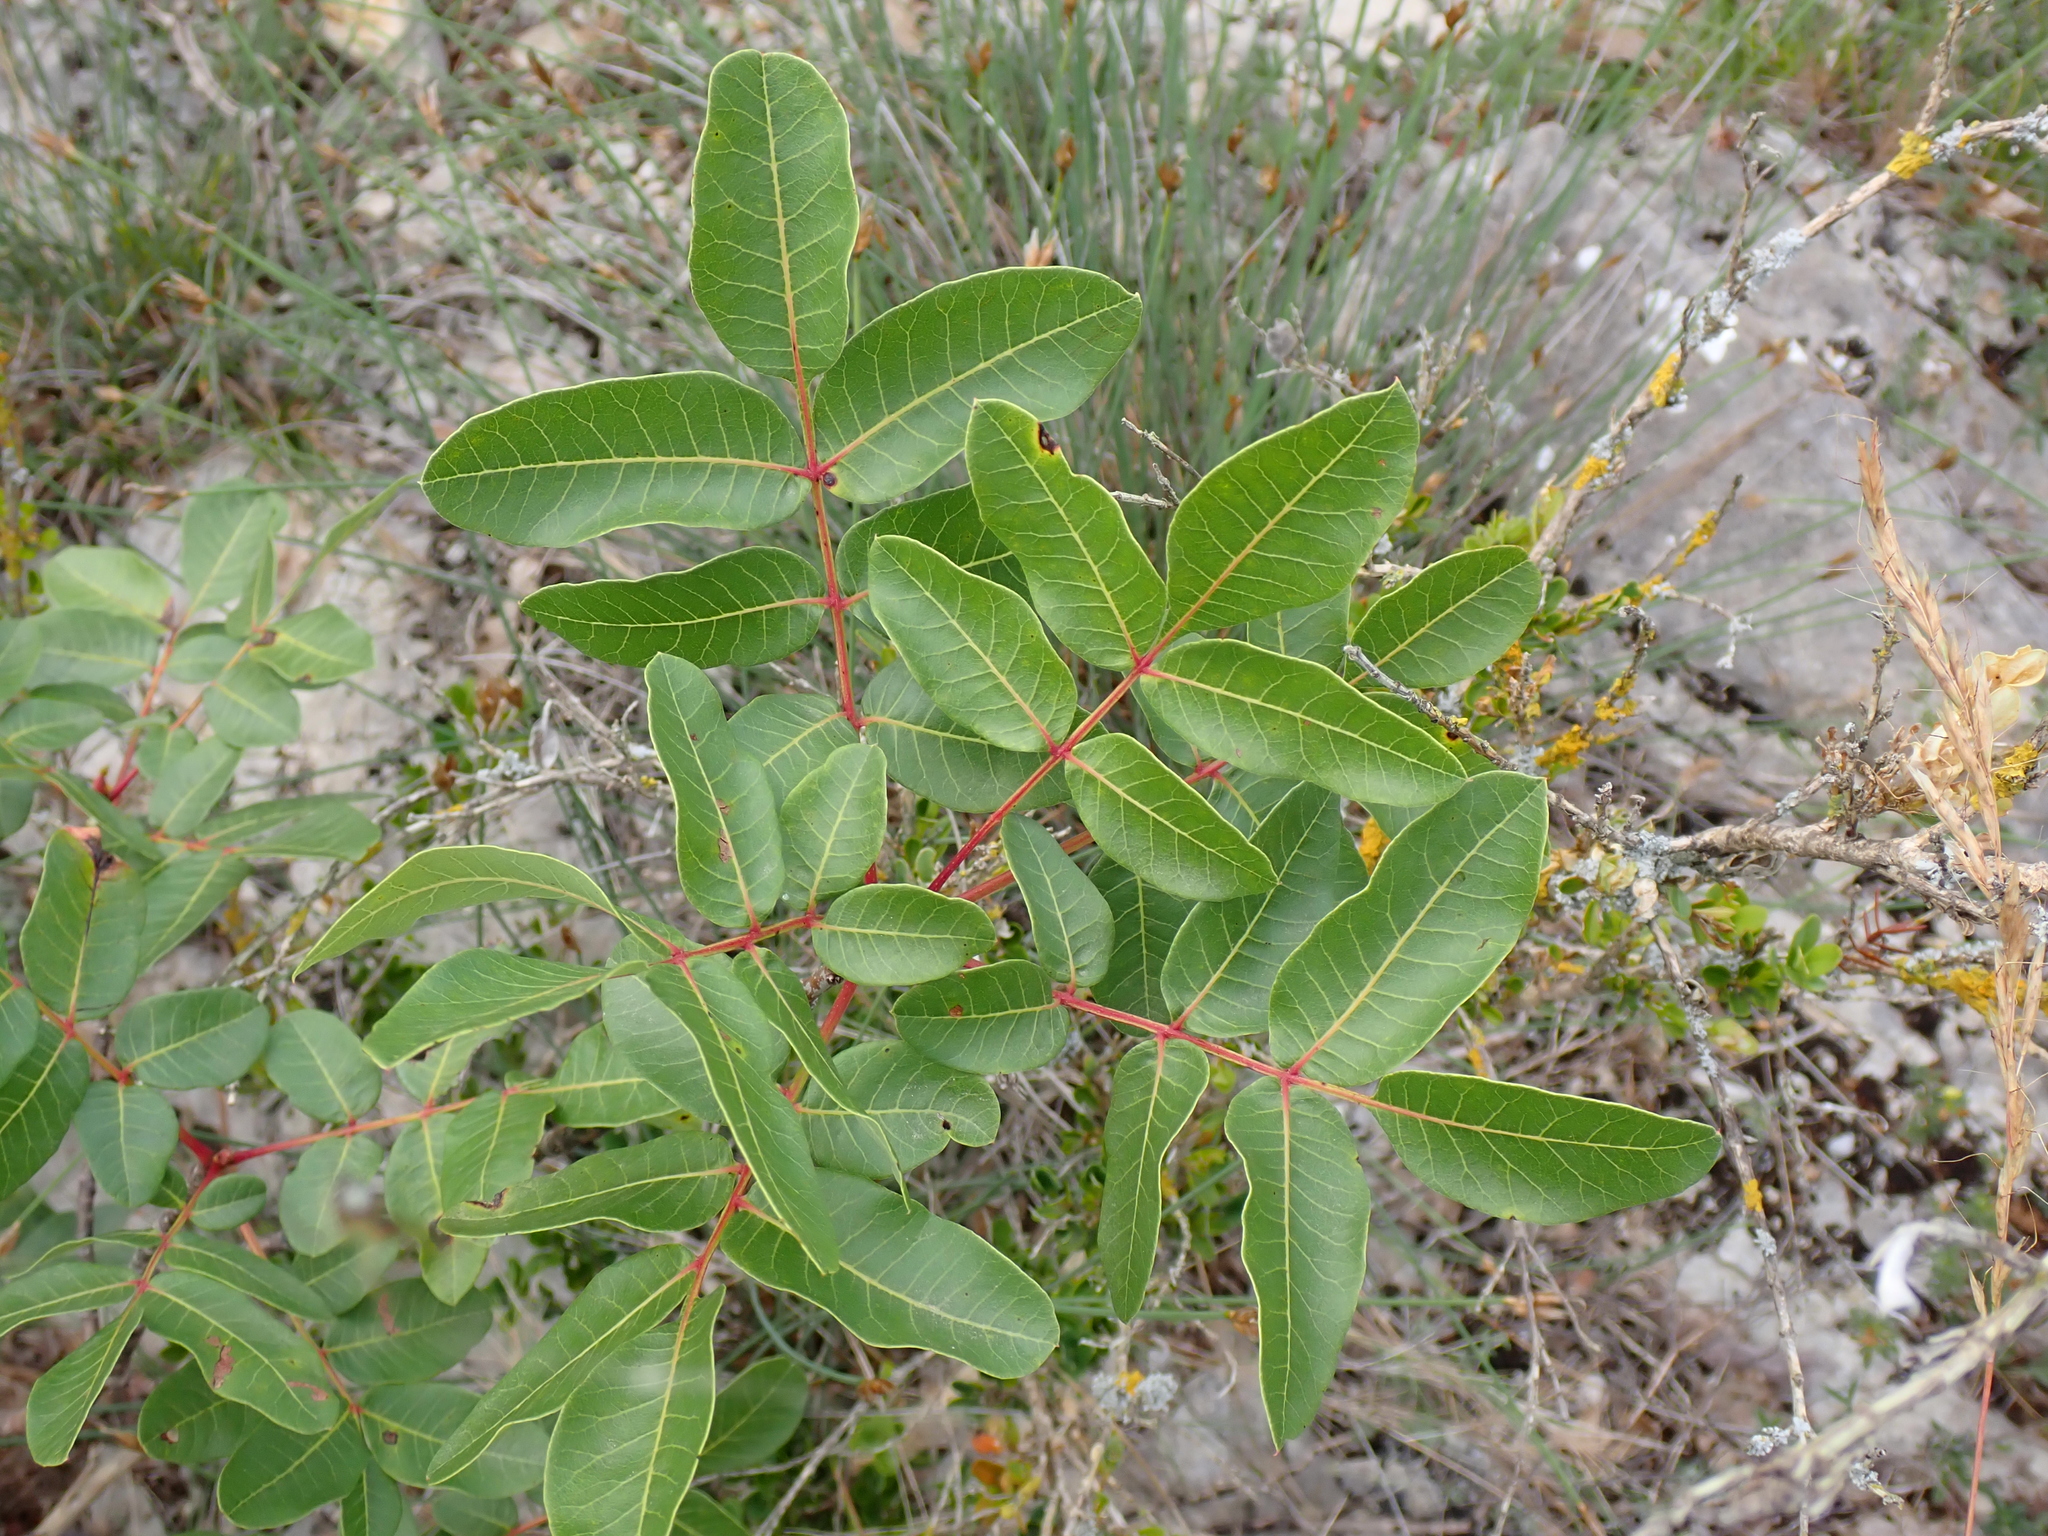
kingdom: Plantae
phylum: Tracheophyta
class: Magnoliopsida
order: Sapindales
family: Anacardiaceae
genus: Pistacia
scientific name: Pistacia terebinthus
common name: Terebinth
